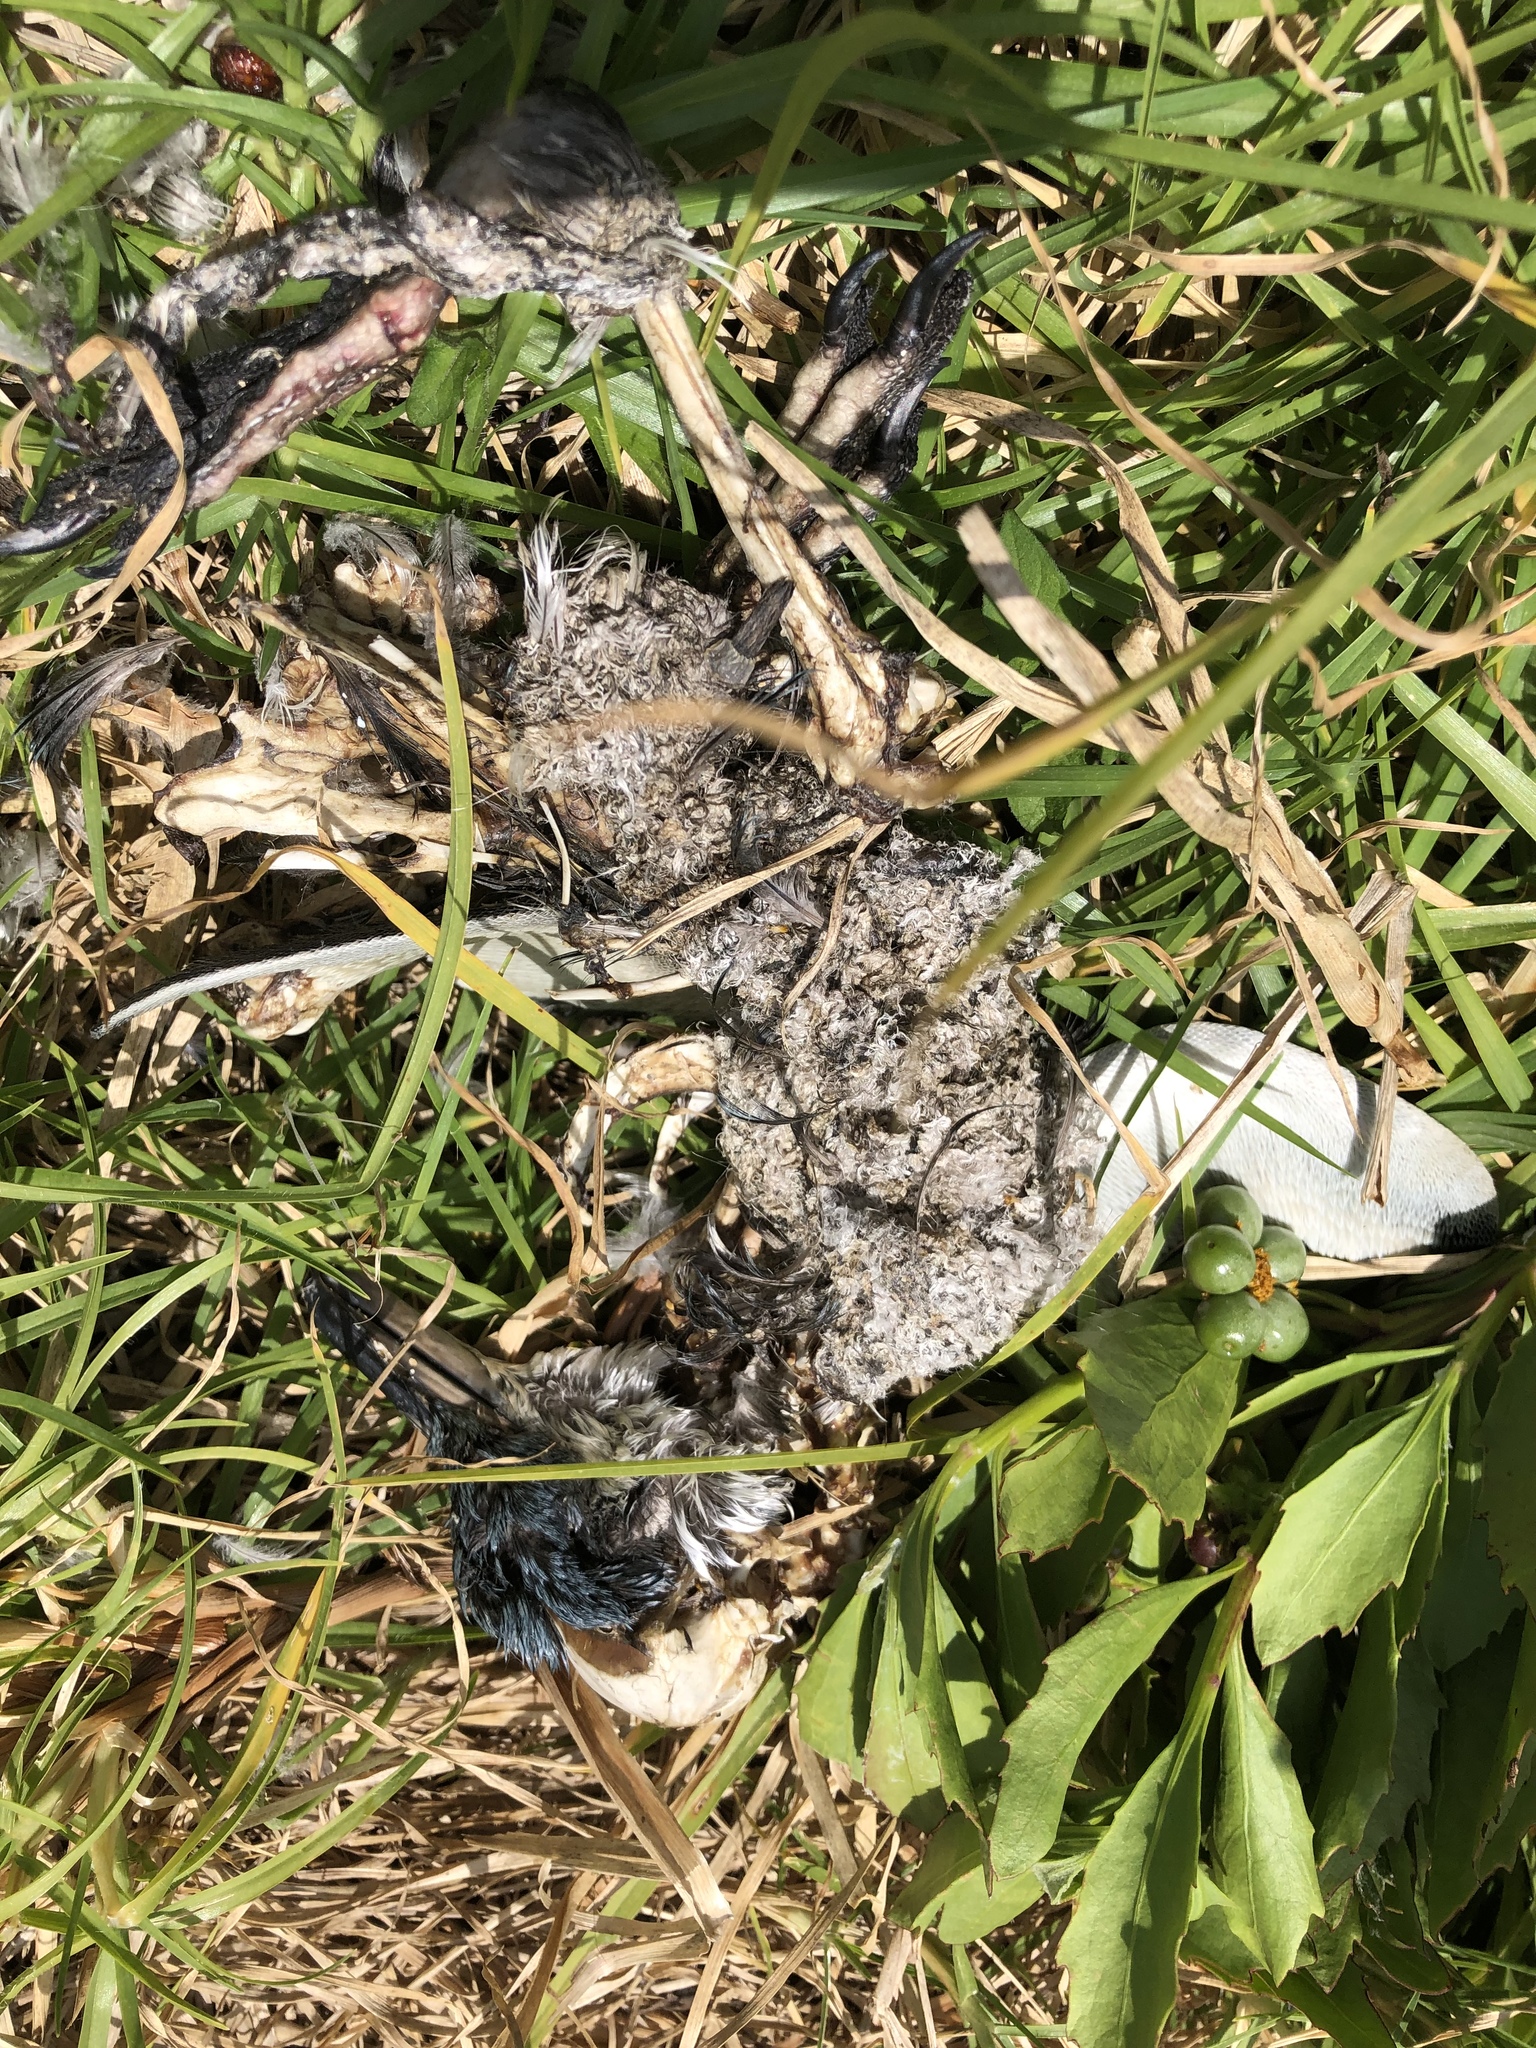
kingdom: Animalia
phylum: Chordata
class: Aves
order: Sphenisciformes
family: Spheniscidae
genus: Eudyptula
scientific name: Eudyptula minor
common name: Little penguin
